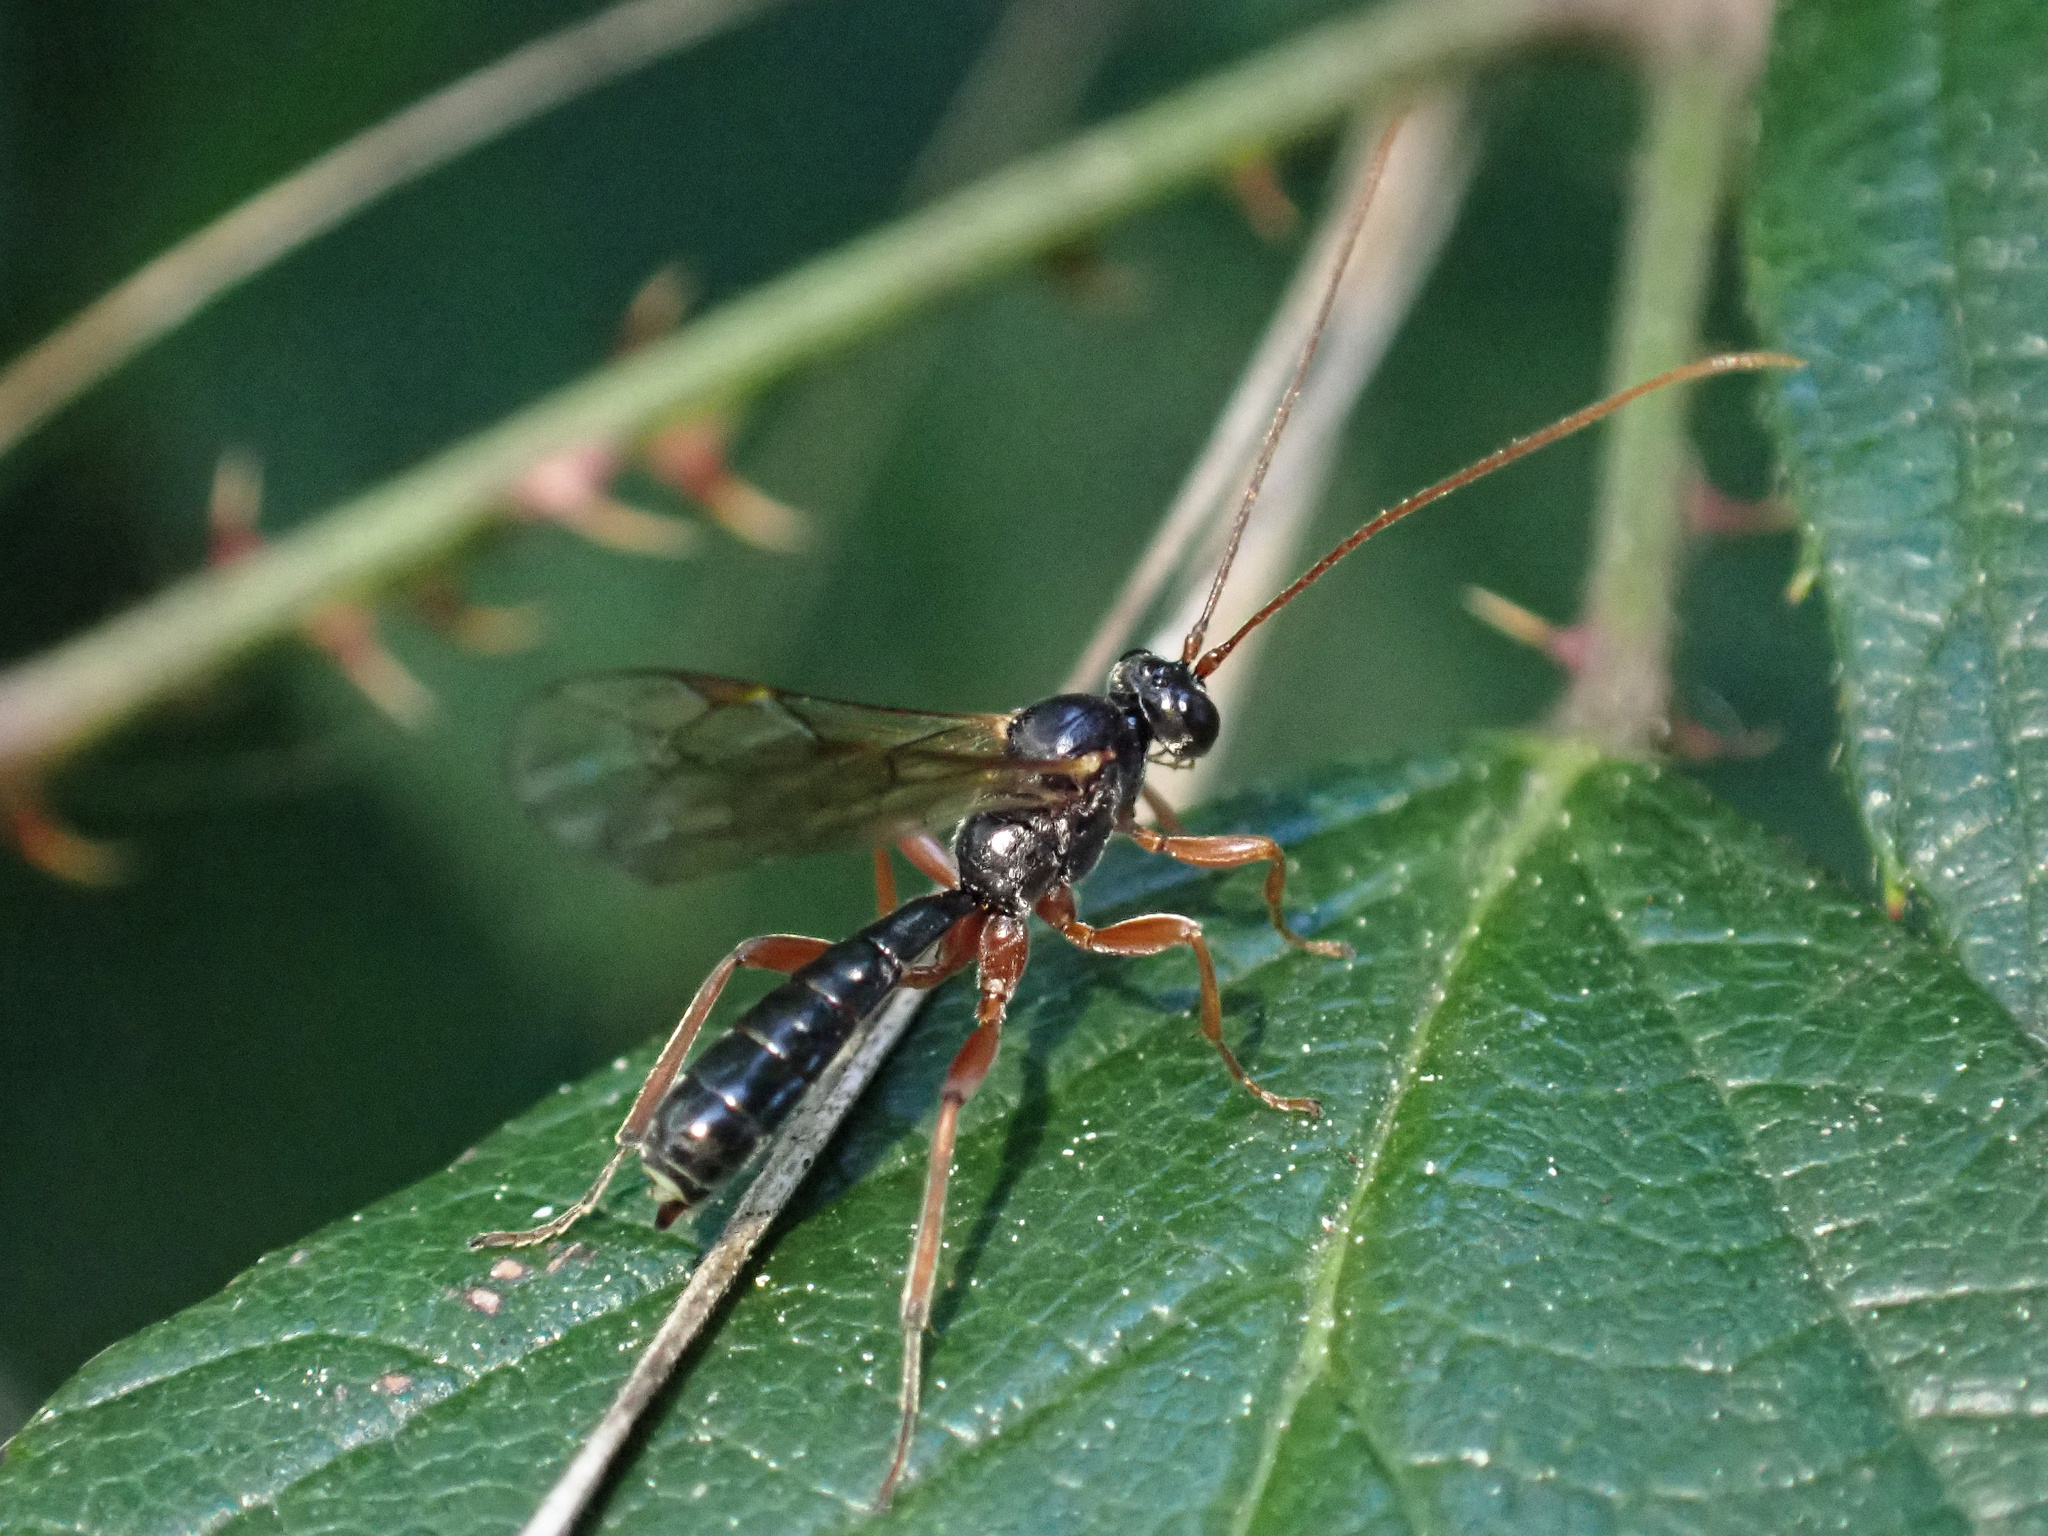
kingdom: Animalia
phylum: Arthropoda
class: Insecta
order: Hymenoptera
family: Ichneumonidae
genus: Dyspetes
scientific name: Dyspetes luteomarginatus
